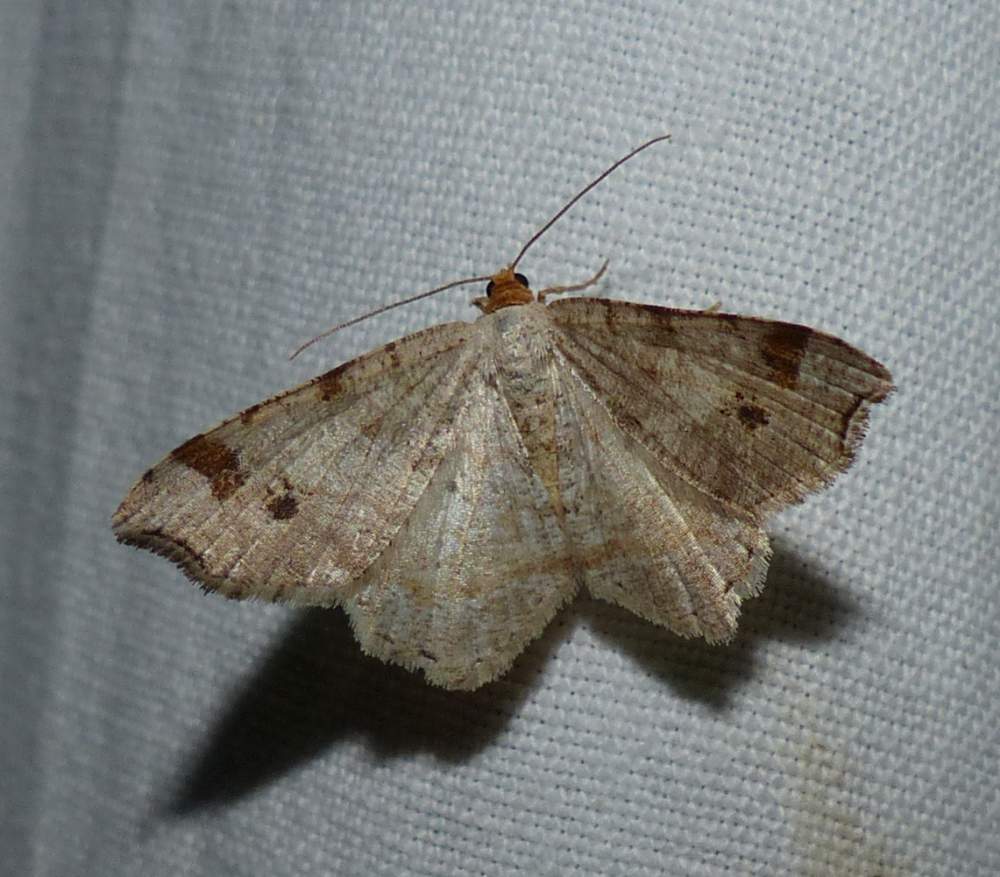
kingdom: Animalia
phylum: Arthropoda
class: Insecta
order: Lepidoptera
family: Geometridae
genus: Macaria
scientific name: Macaria bisignata
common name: Red-headed inchworm
